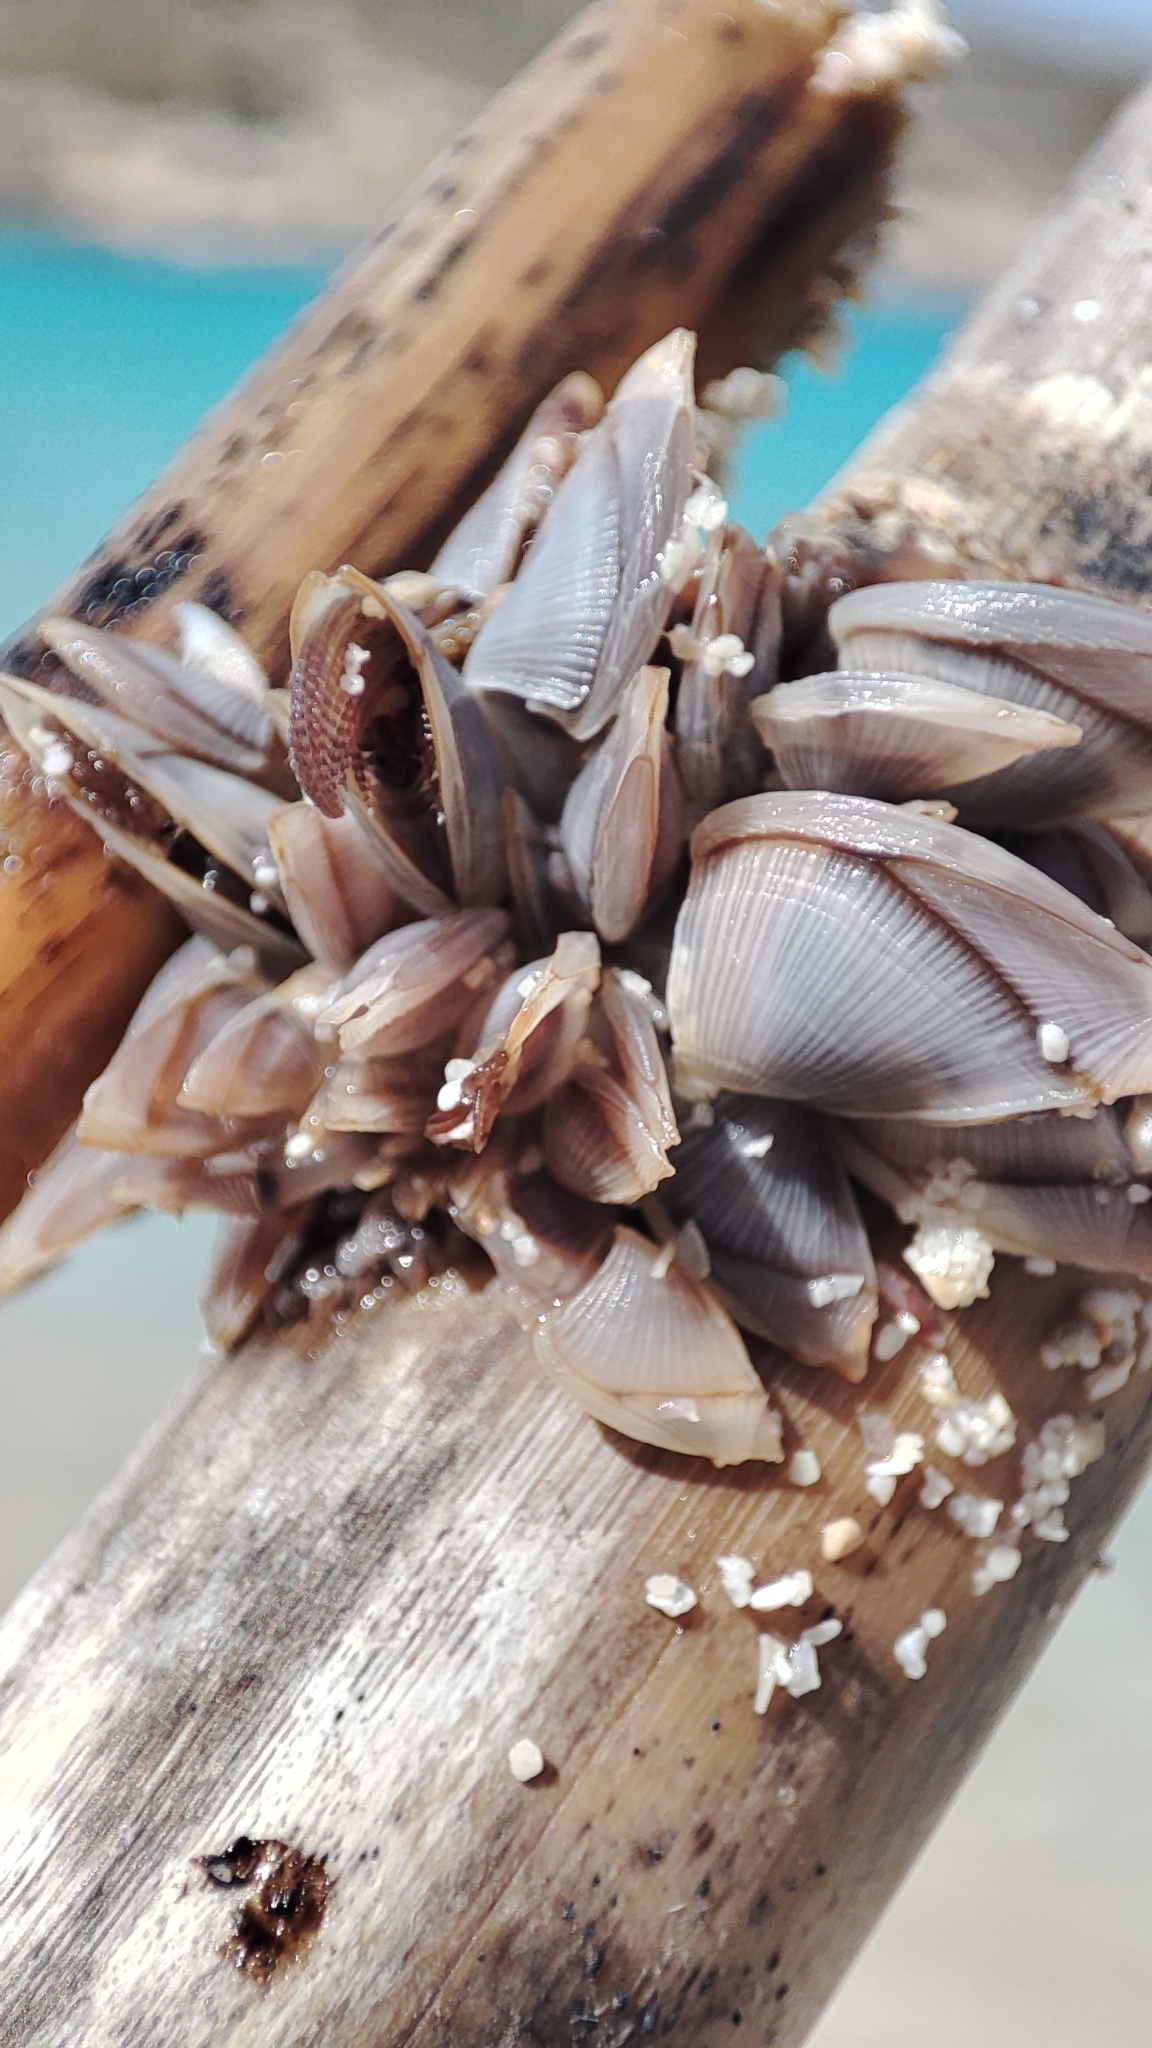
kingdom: Animalia
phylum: Arthropoda
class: Maxillopoda
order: Pedunculata
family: Lepadidae
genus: Lepas
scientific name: Lepas pectinata
